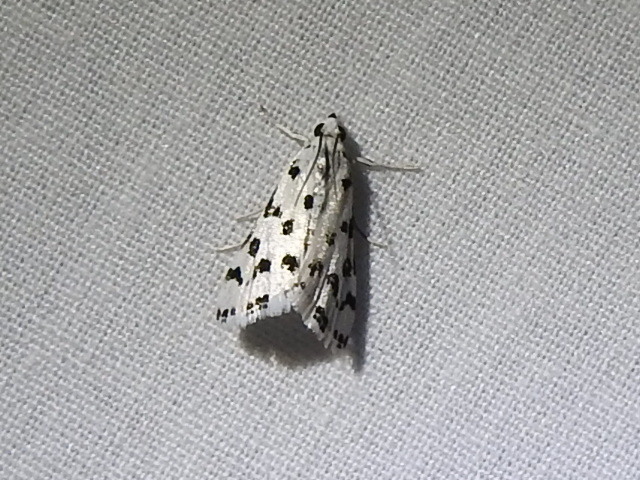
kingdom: Animalia
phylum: Arthropoda
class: Insecta
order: Lepidoptera
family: Crambidae
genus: Eustixia
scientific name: Eustixia pupula
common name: American cabbage pearl
